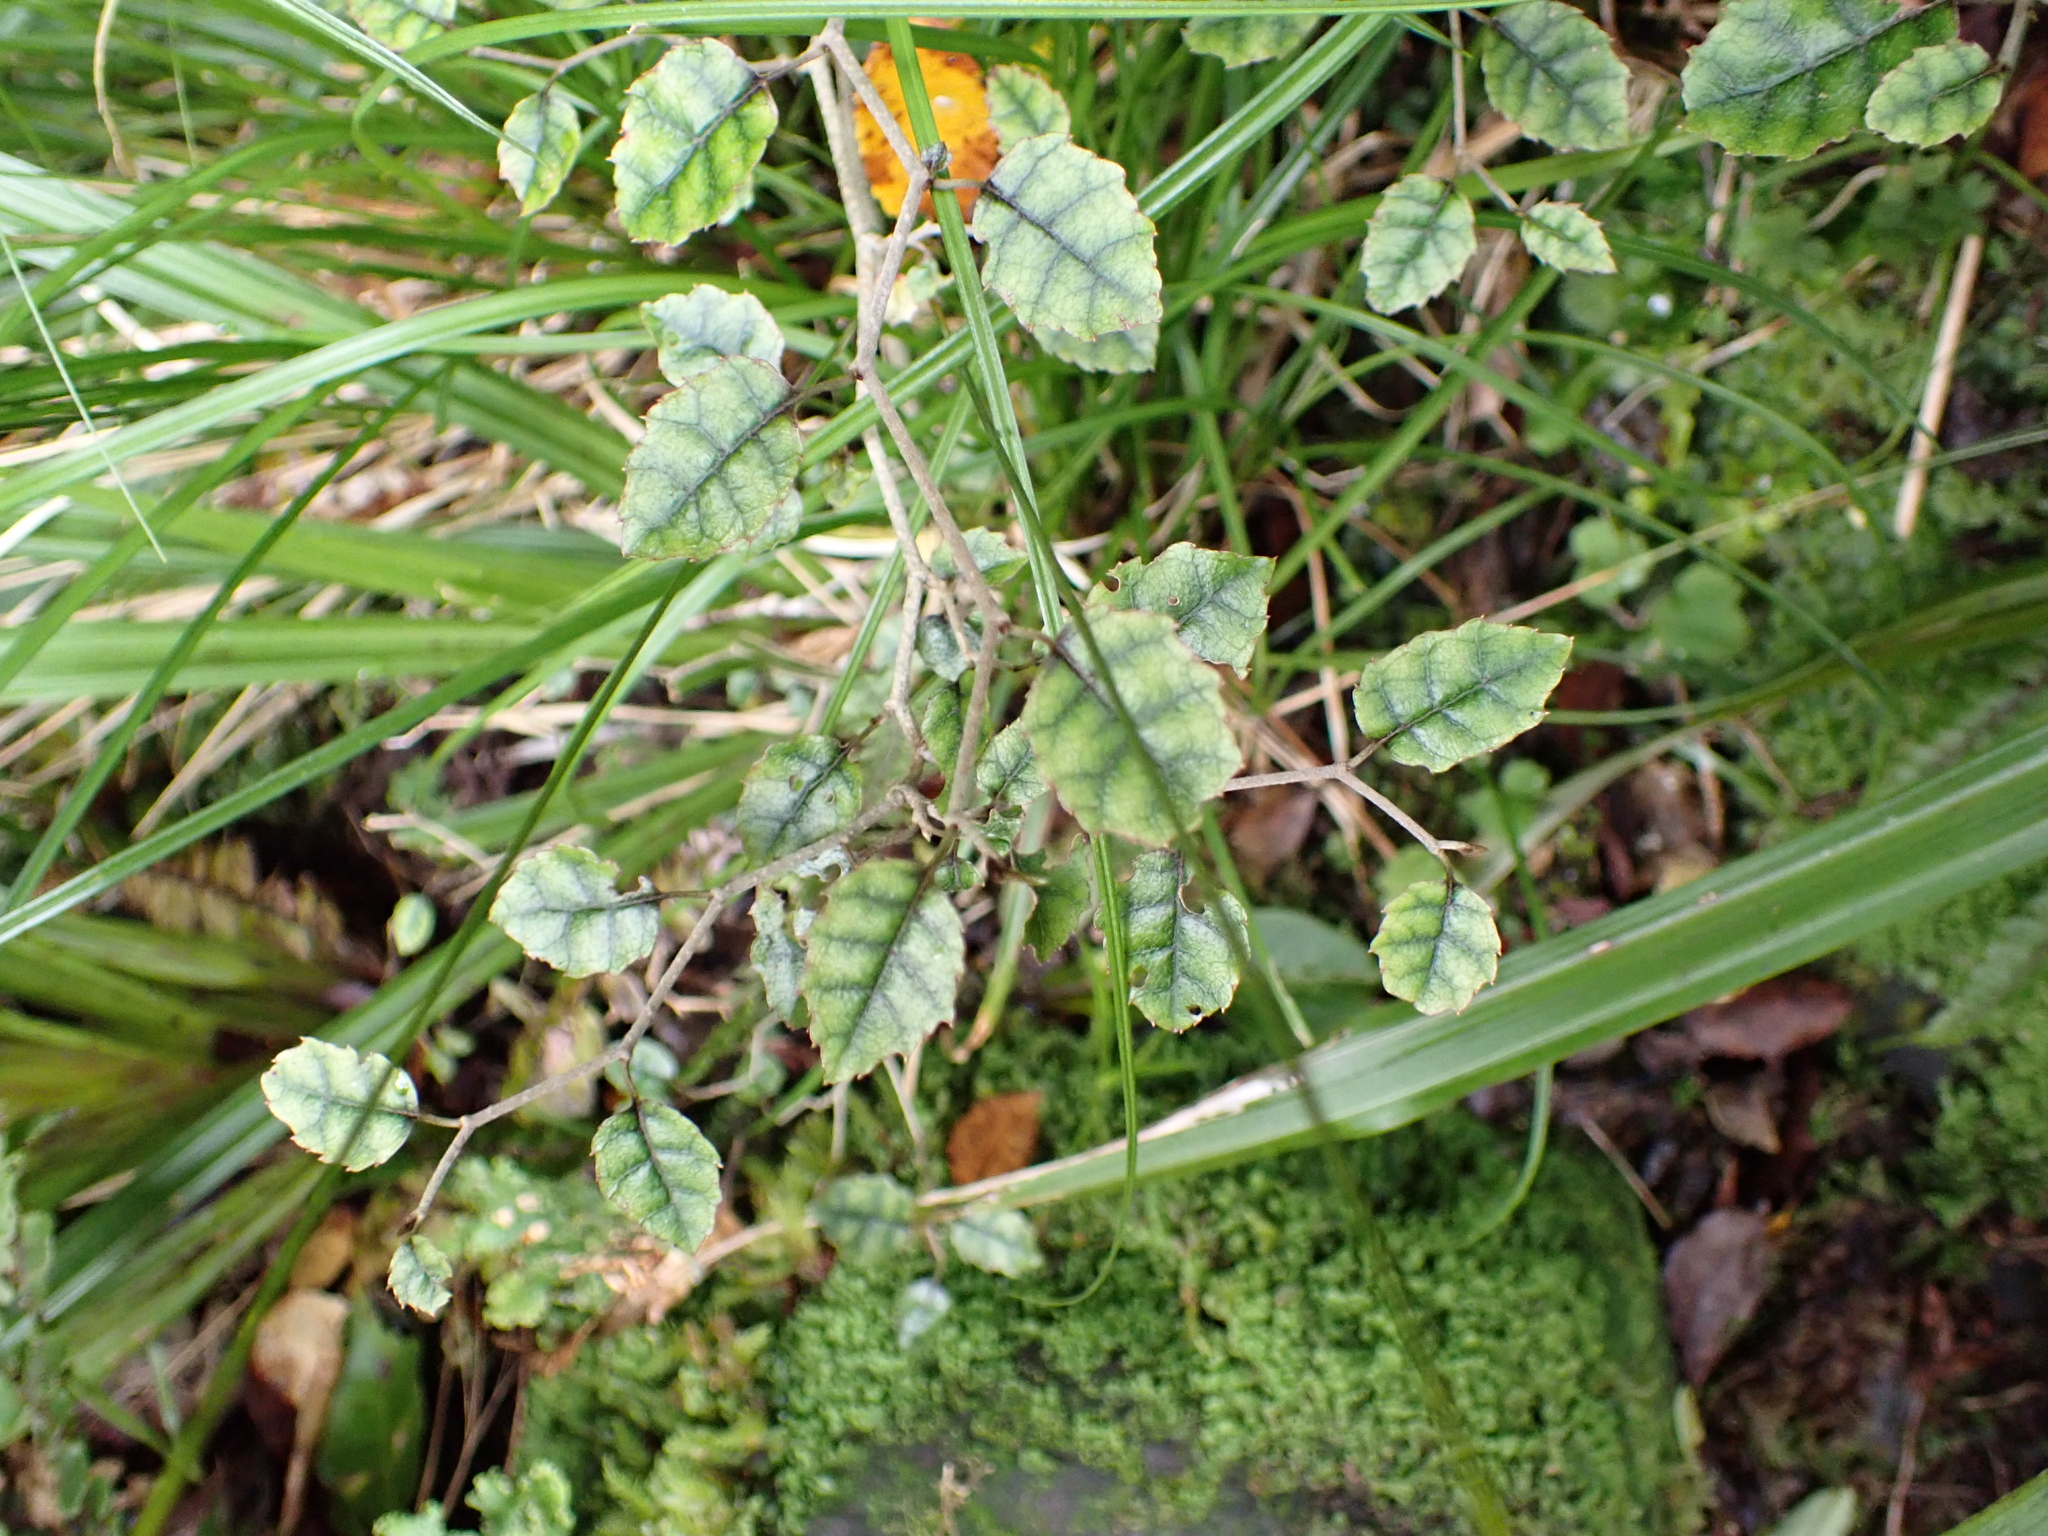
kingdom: Plantae
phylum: Tracheophyta
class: Magnoliopsida
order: Asterales
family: Rousseaceae
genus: Carpodetus
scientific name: Carpodetus serratus
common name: White mapau
